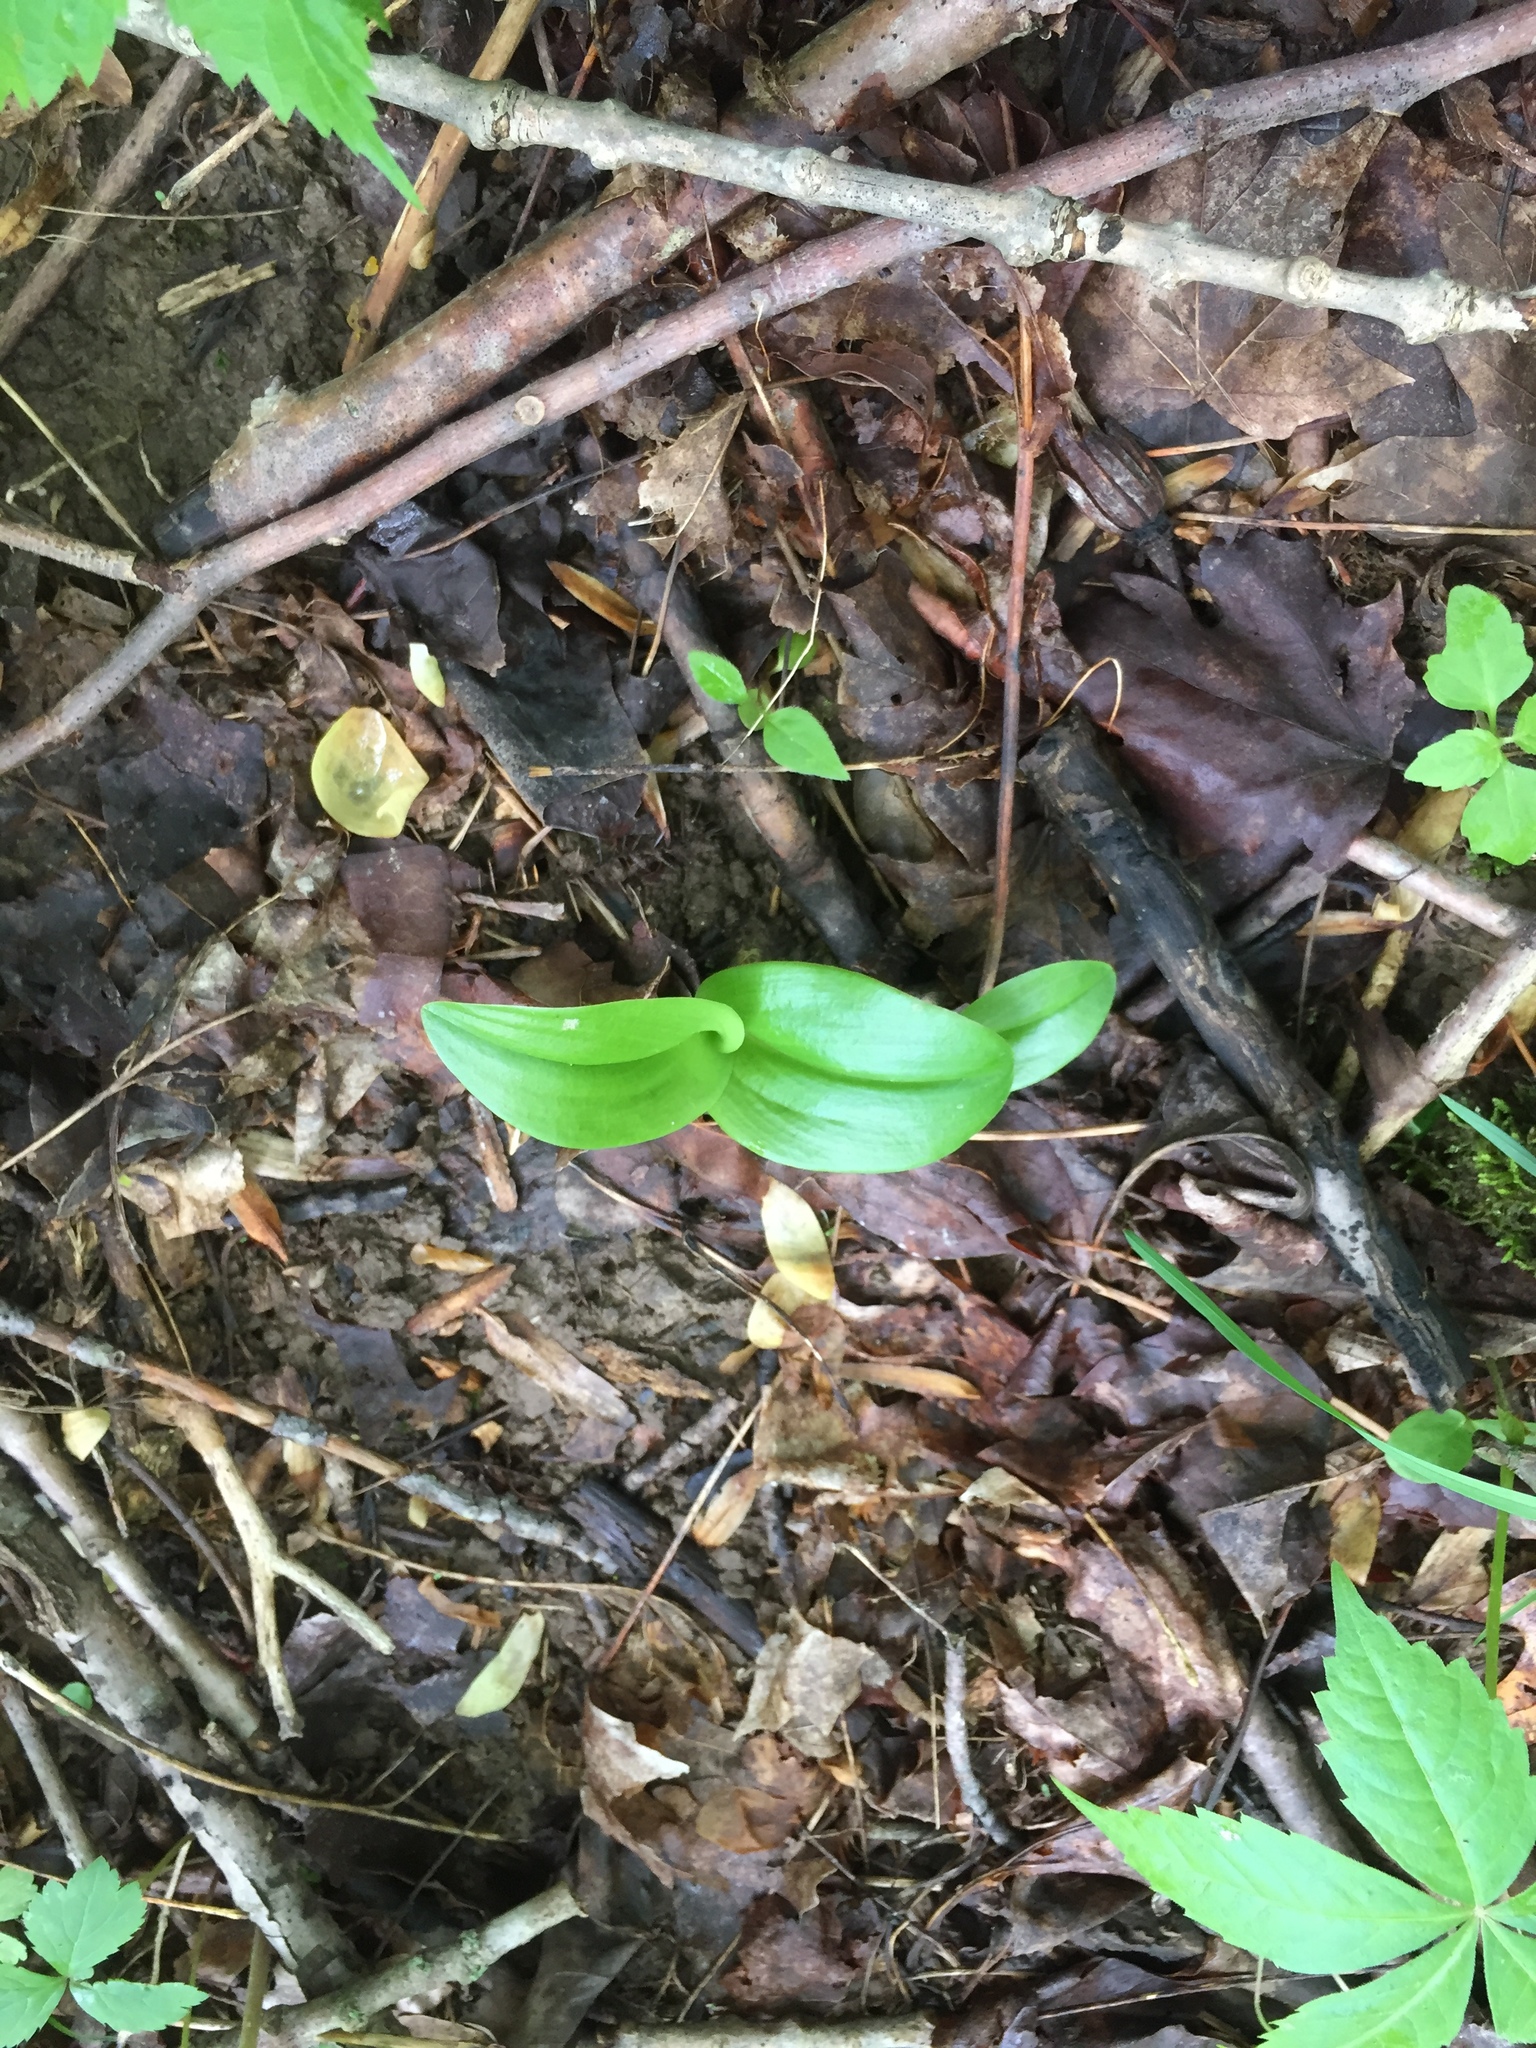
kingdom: Plantae
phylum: Tracheophyta
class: Liliopsida
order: Asparagales
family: Orchidaceae
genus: Galearis
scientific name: Galearis spectabilis
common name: Purple-hooded orchis
